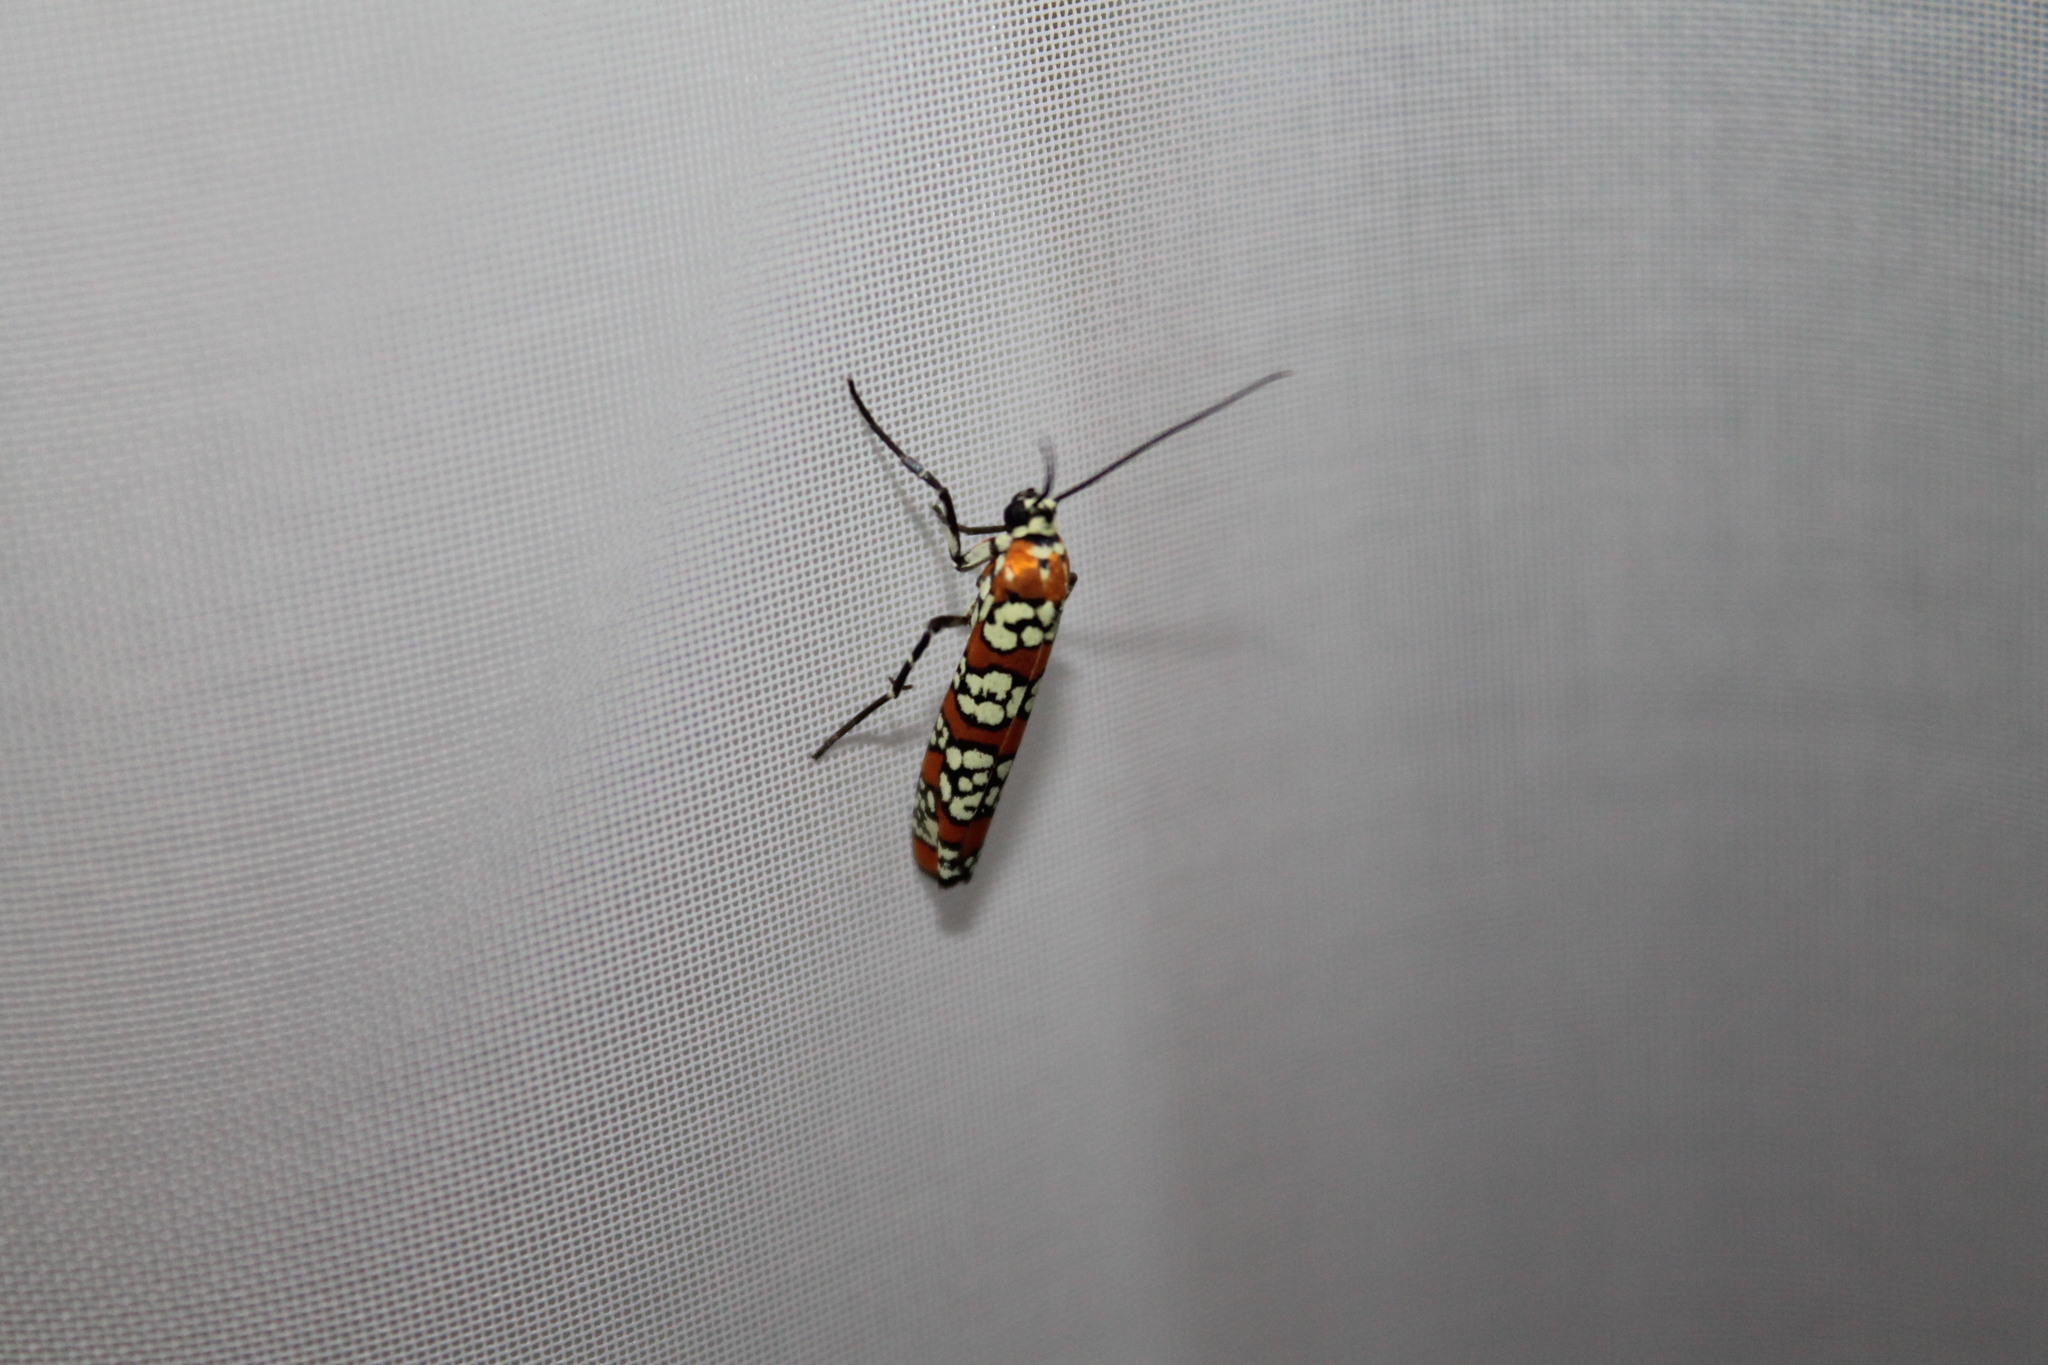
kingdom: Animalia
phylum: Arthropoda
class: Insecta
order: Lepidoptera
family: Attevidae
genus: Atteva
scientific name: Atteva punctella
